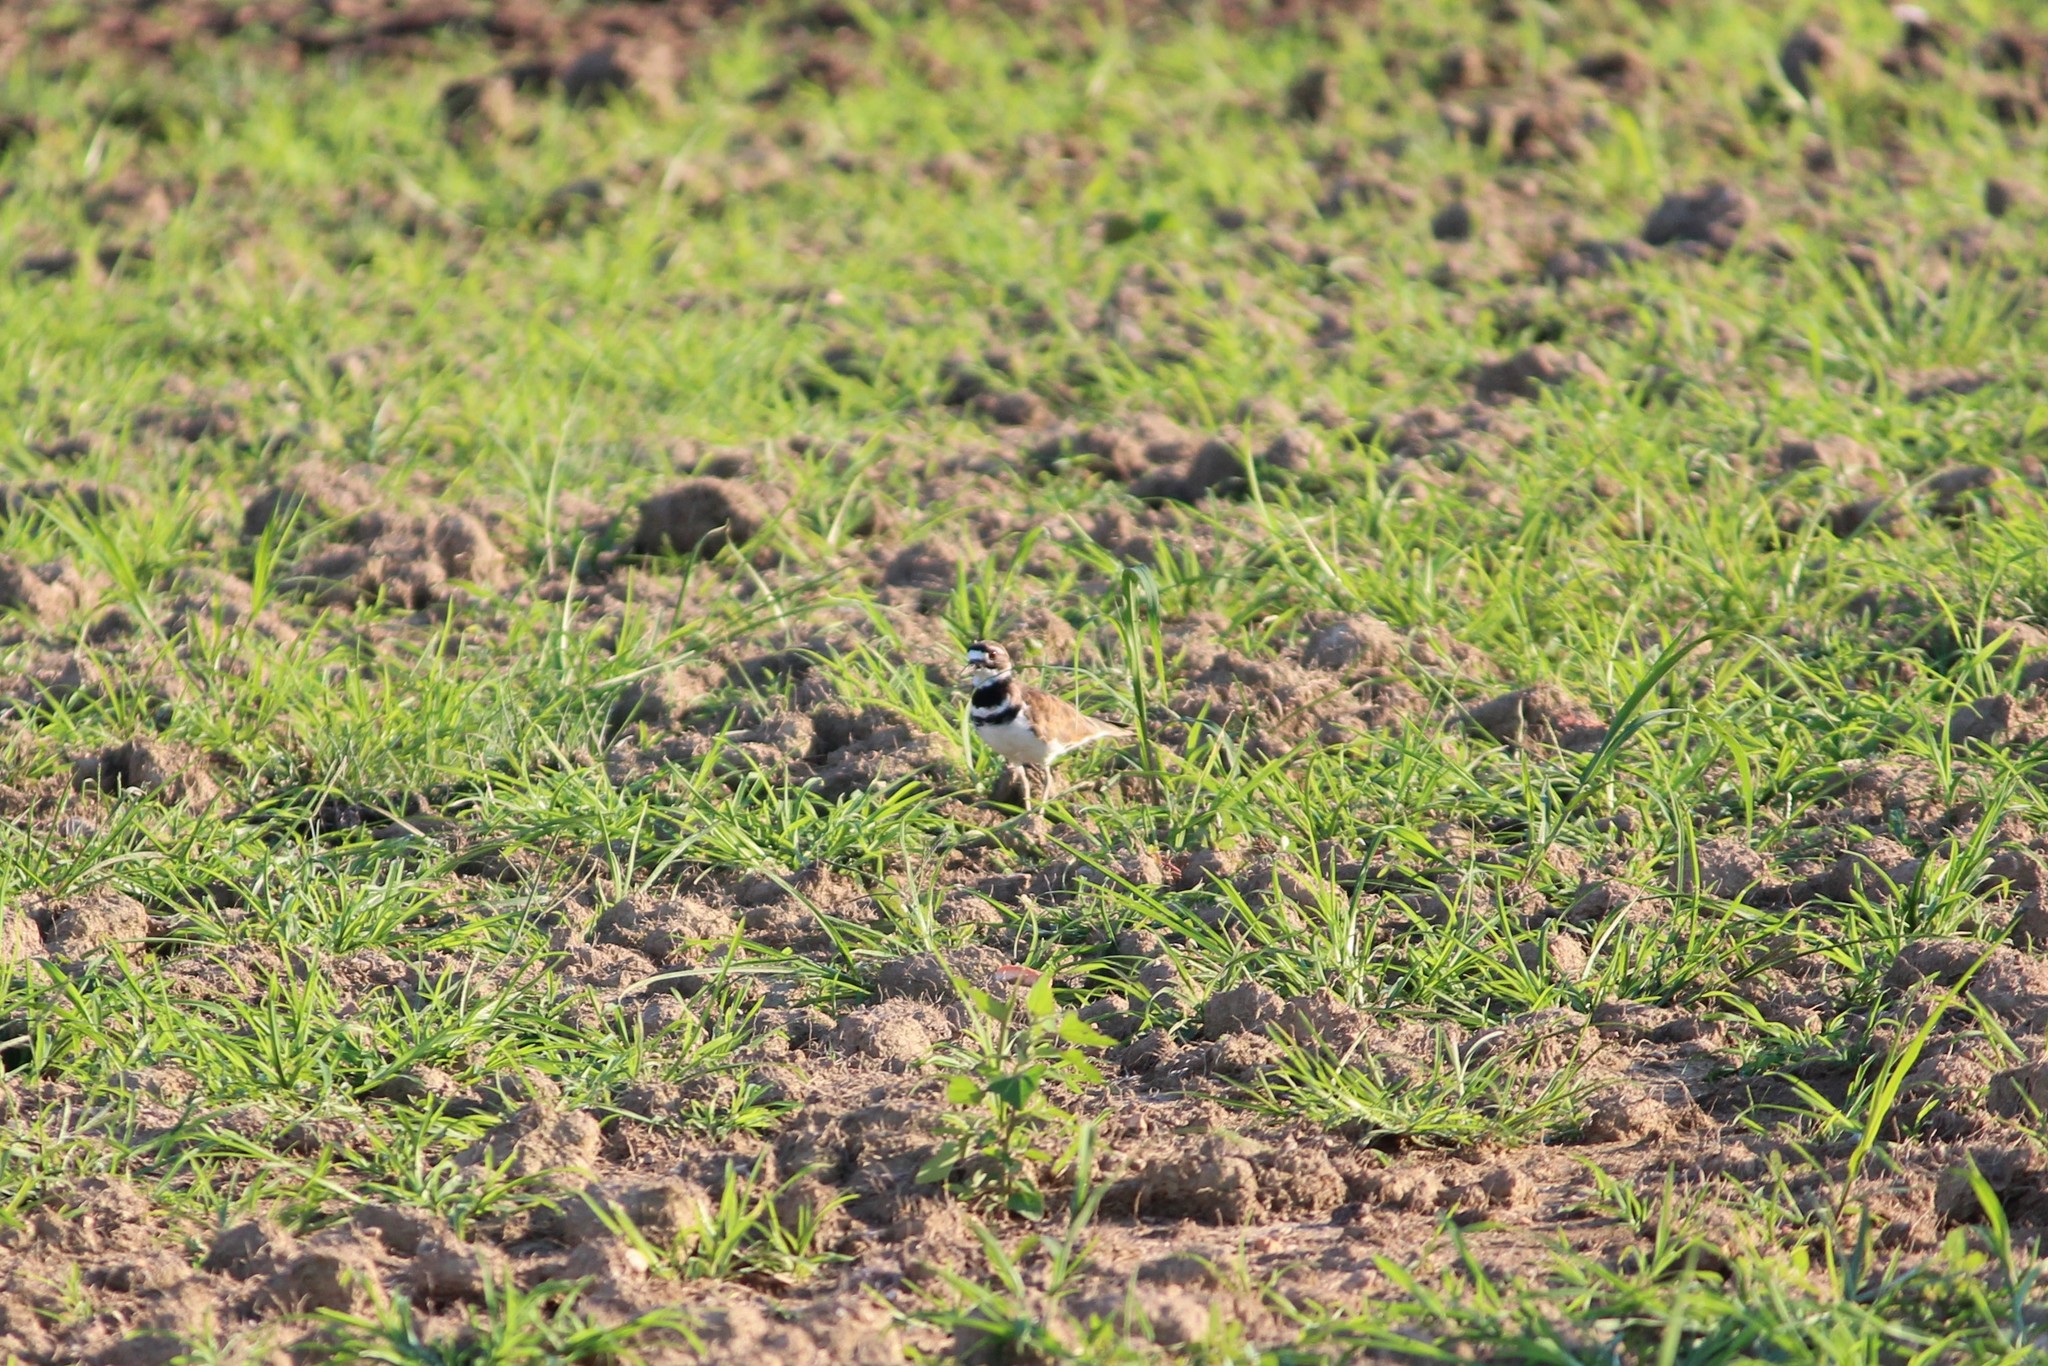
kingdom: Animalia
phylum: Chordata
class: Aves
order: Charadriiformes
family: Charadriidae
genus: Charadrius
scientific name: Charadrius vociferus
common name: Killdeer
